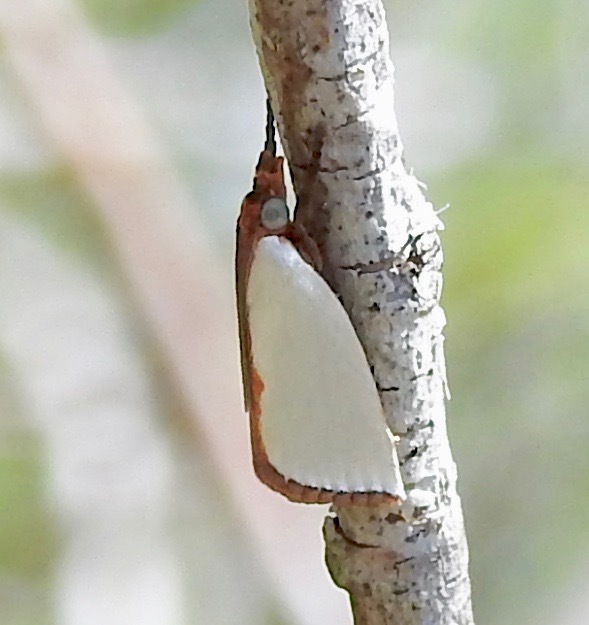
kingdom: Animalia
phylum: Arthropoda
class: Insecta
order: Lepidoptera
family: Crambidae
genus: Argyria
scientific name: Argyria
